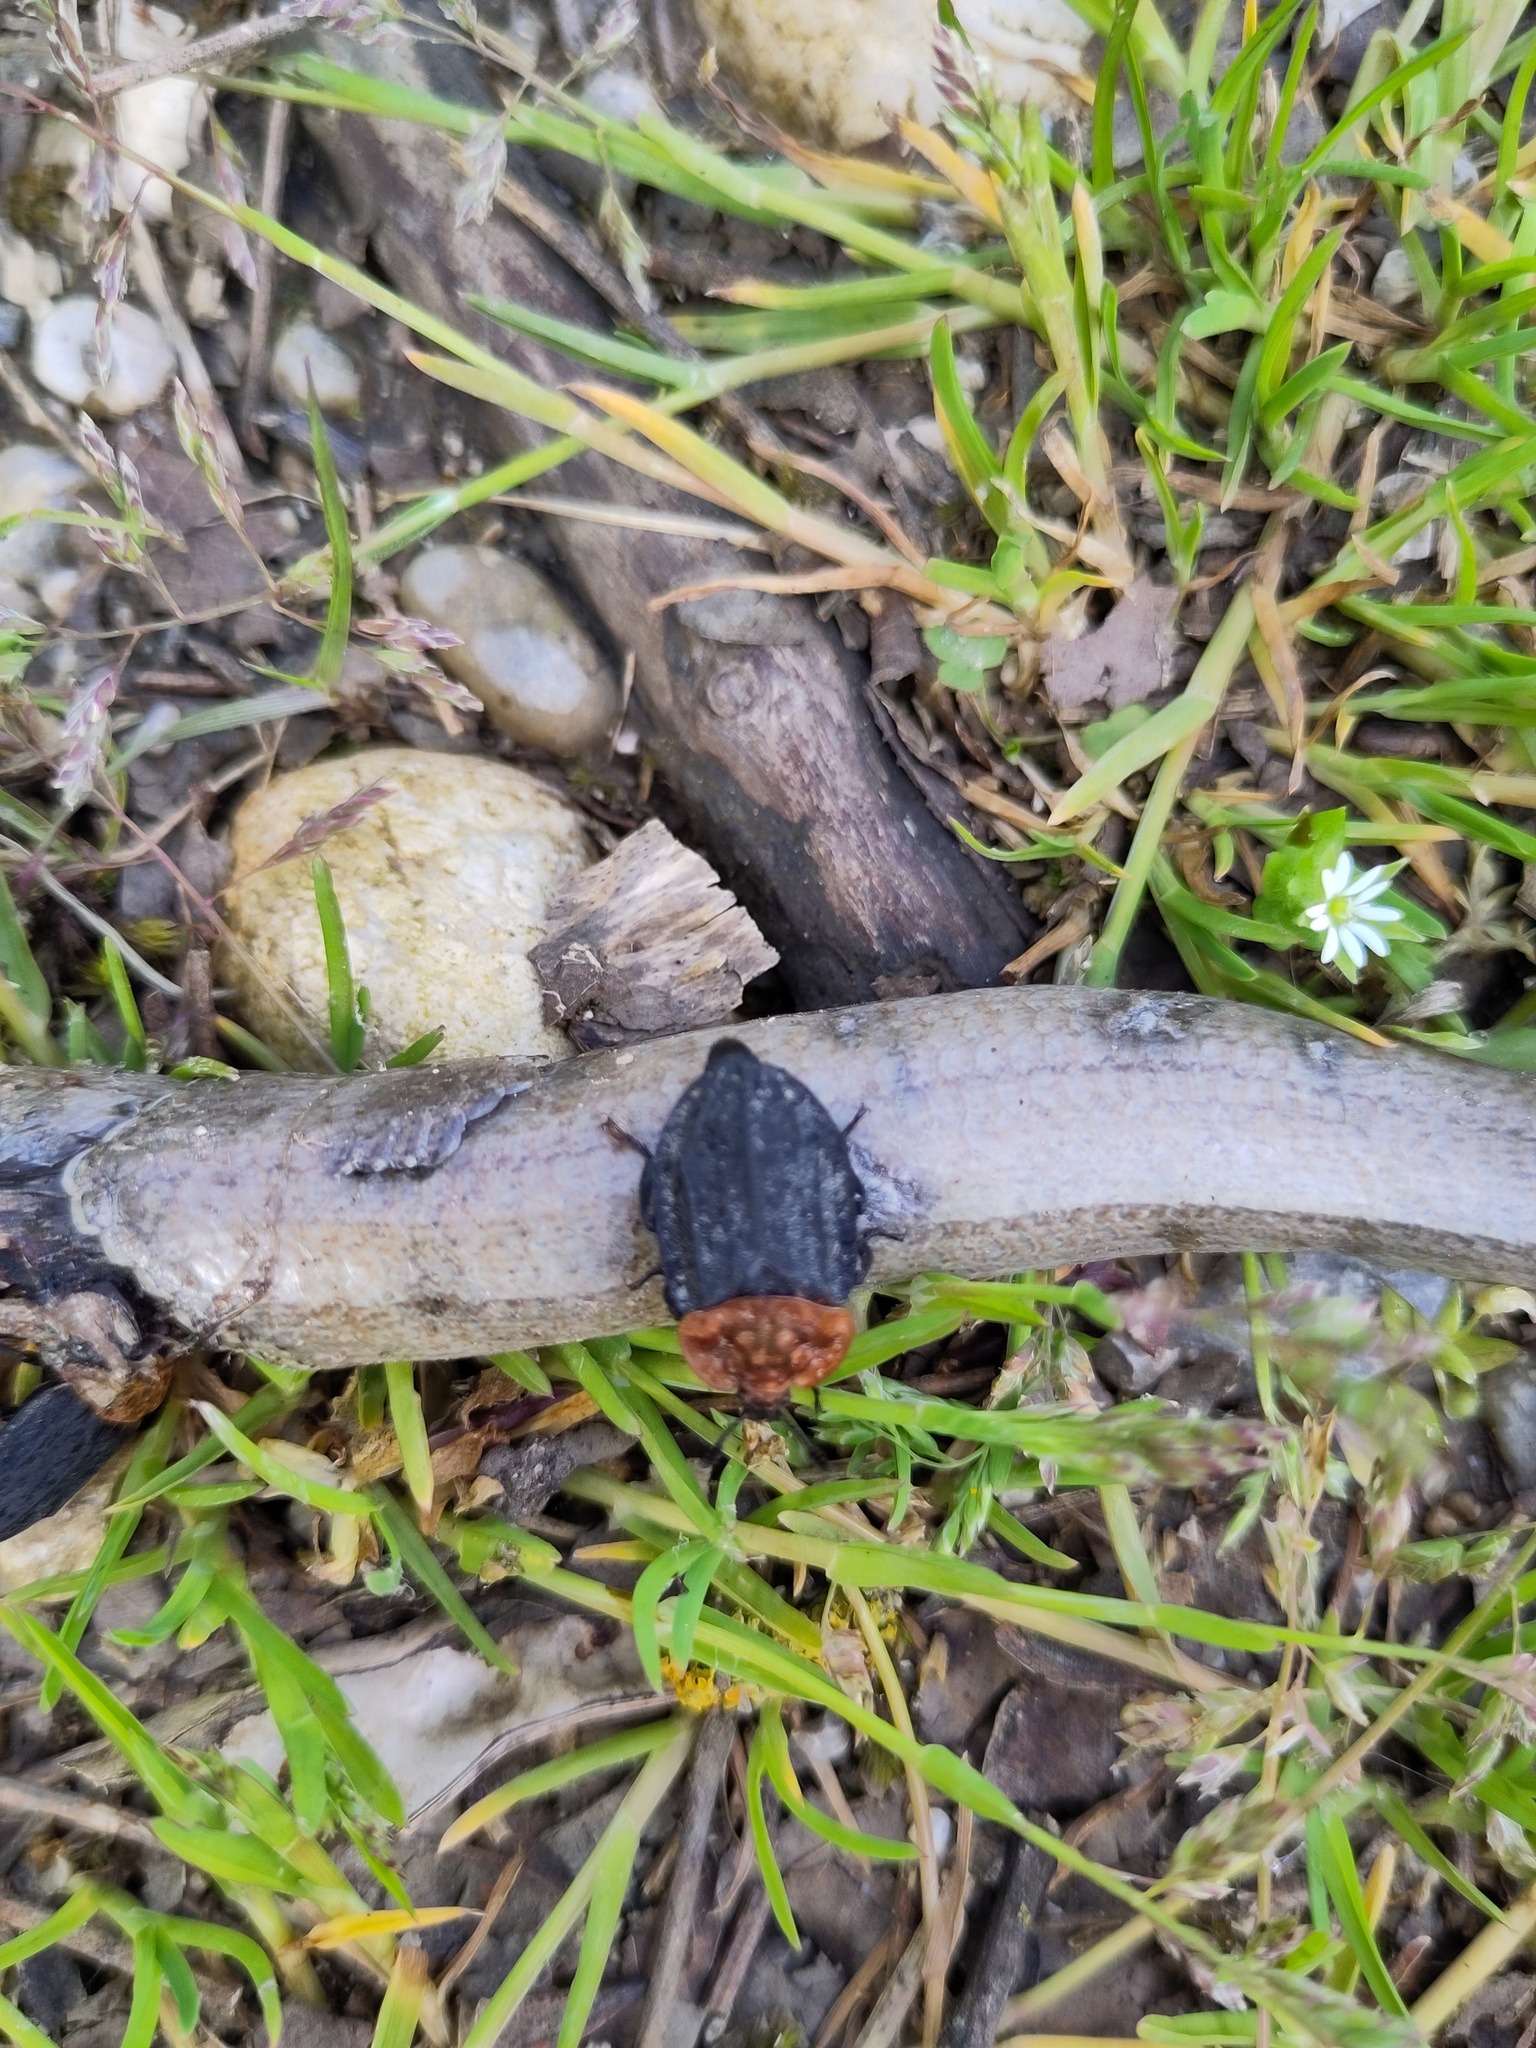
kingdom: Animalia
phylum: Arthropoda
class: Insecta
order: Coleoptera
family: Staphylinidae
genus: Oiceoptoma
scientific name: Oiceoptoma thoracicum
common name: Red-breasted carrion beetle
